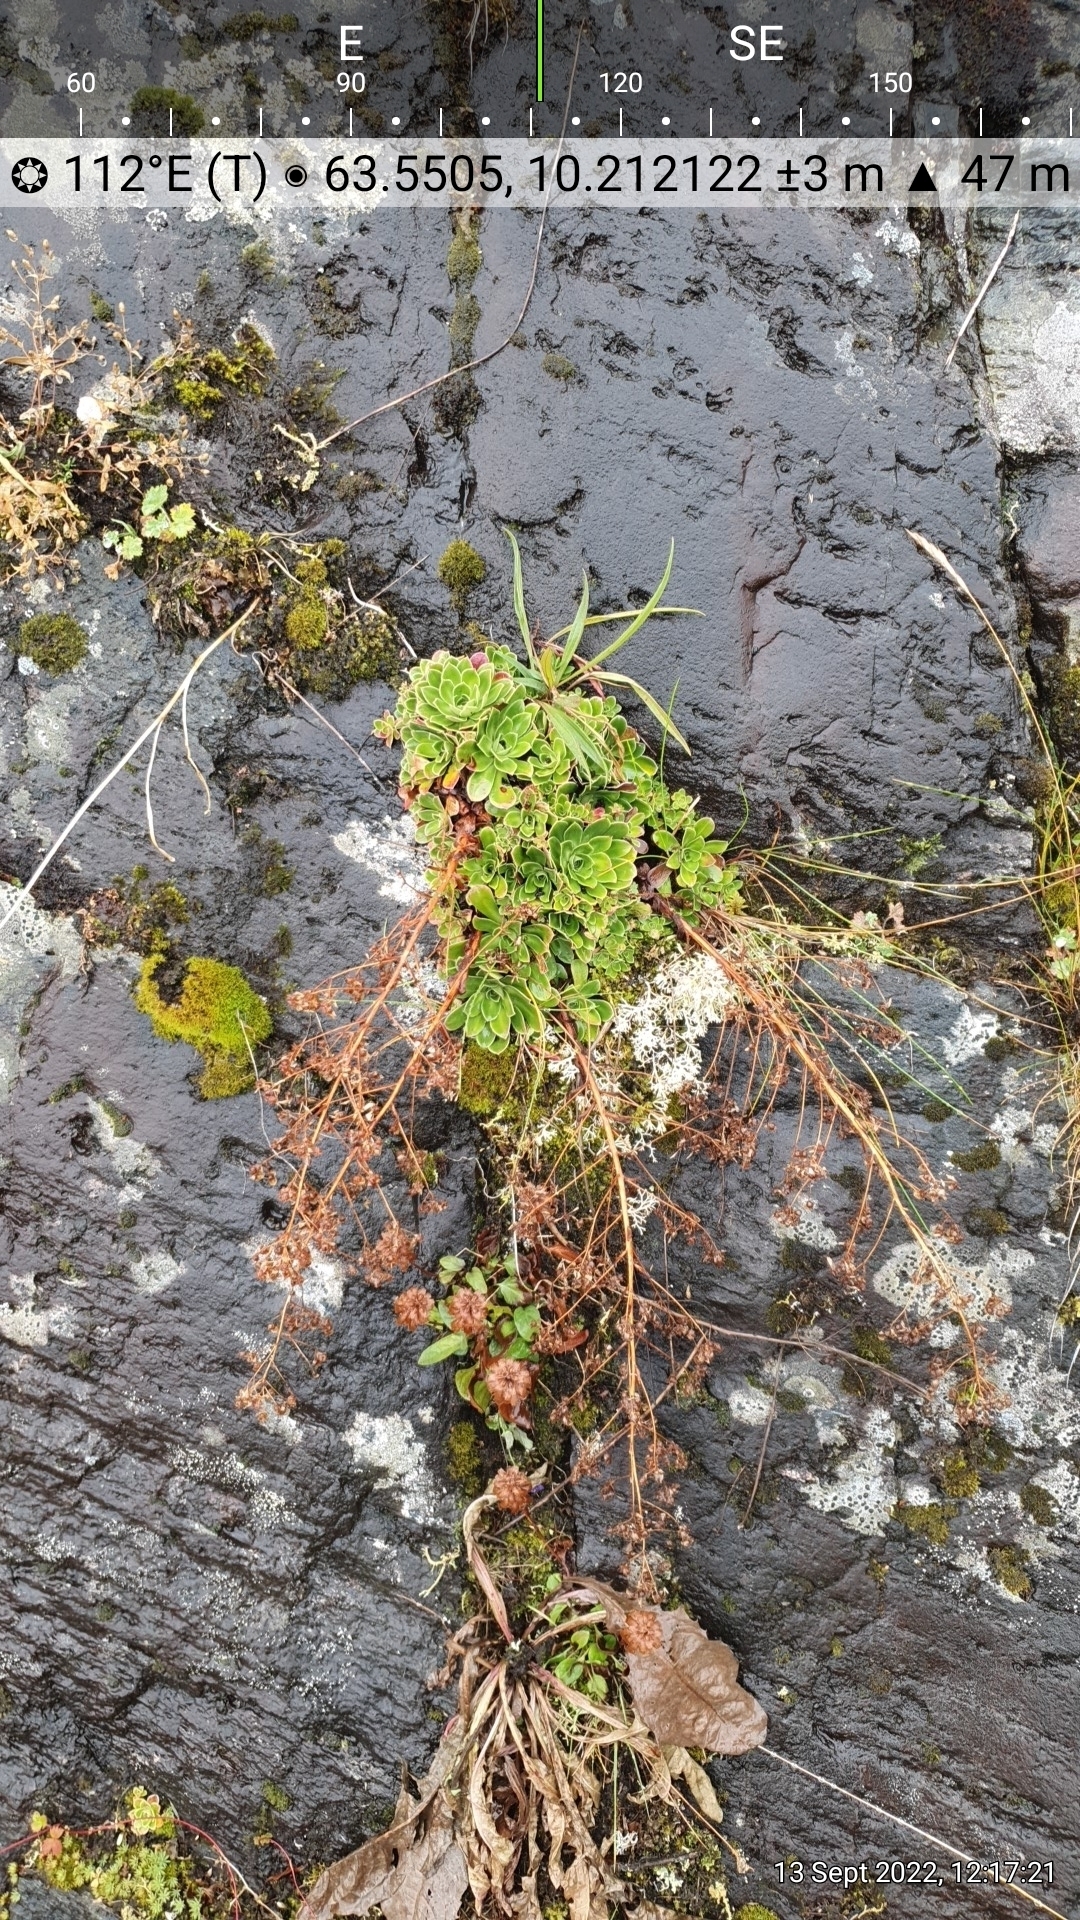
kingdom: Plantae
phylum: Tracheophyta
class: Magnoliopsida
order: Saxifragales
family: Saxifragaceae
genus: Saxifraga
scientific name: Saxifraga cotyledon
